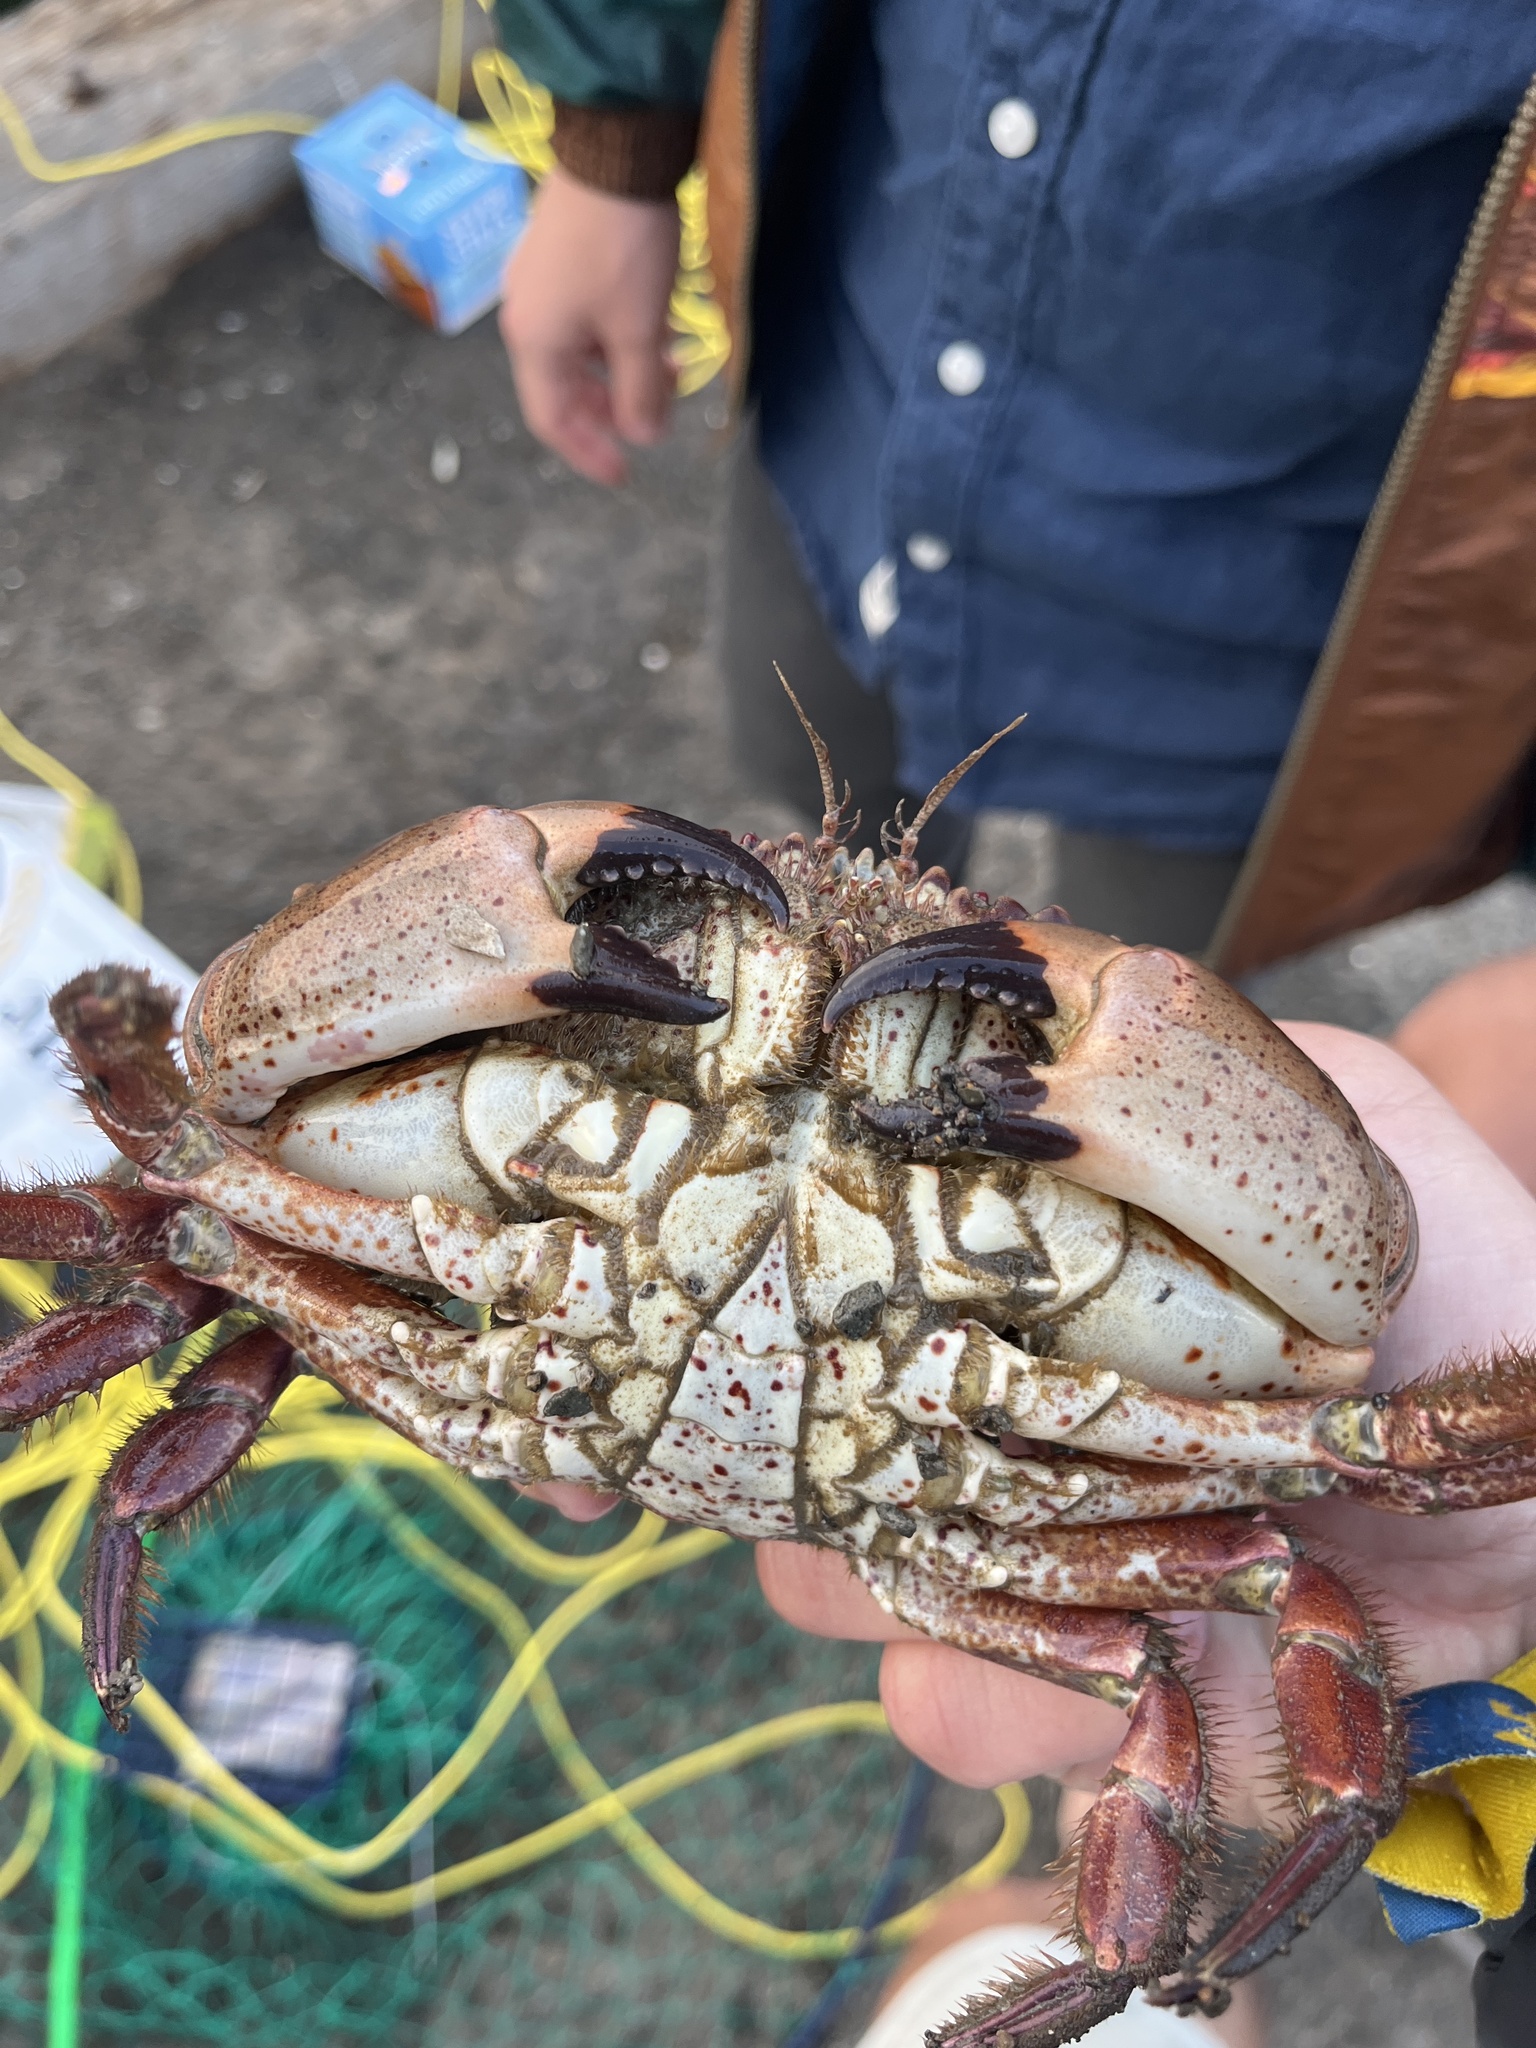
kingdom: Animalia
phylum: Arthropoda
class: Malacostraca
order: Decapoda
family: Cancridae
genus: Romaleon
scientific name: Romaleon antennarium
